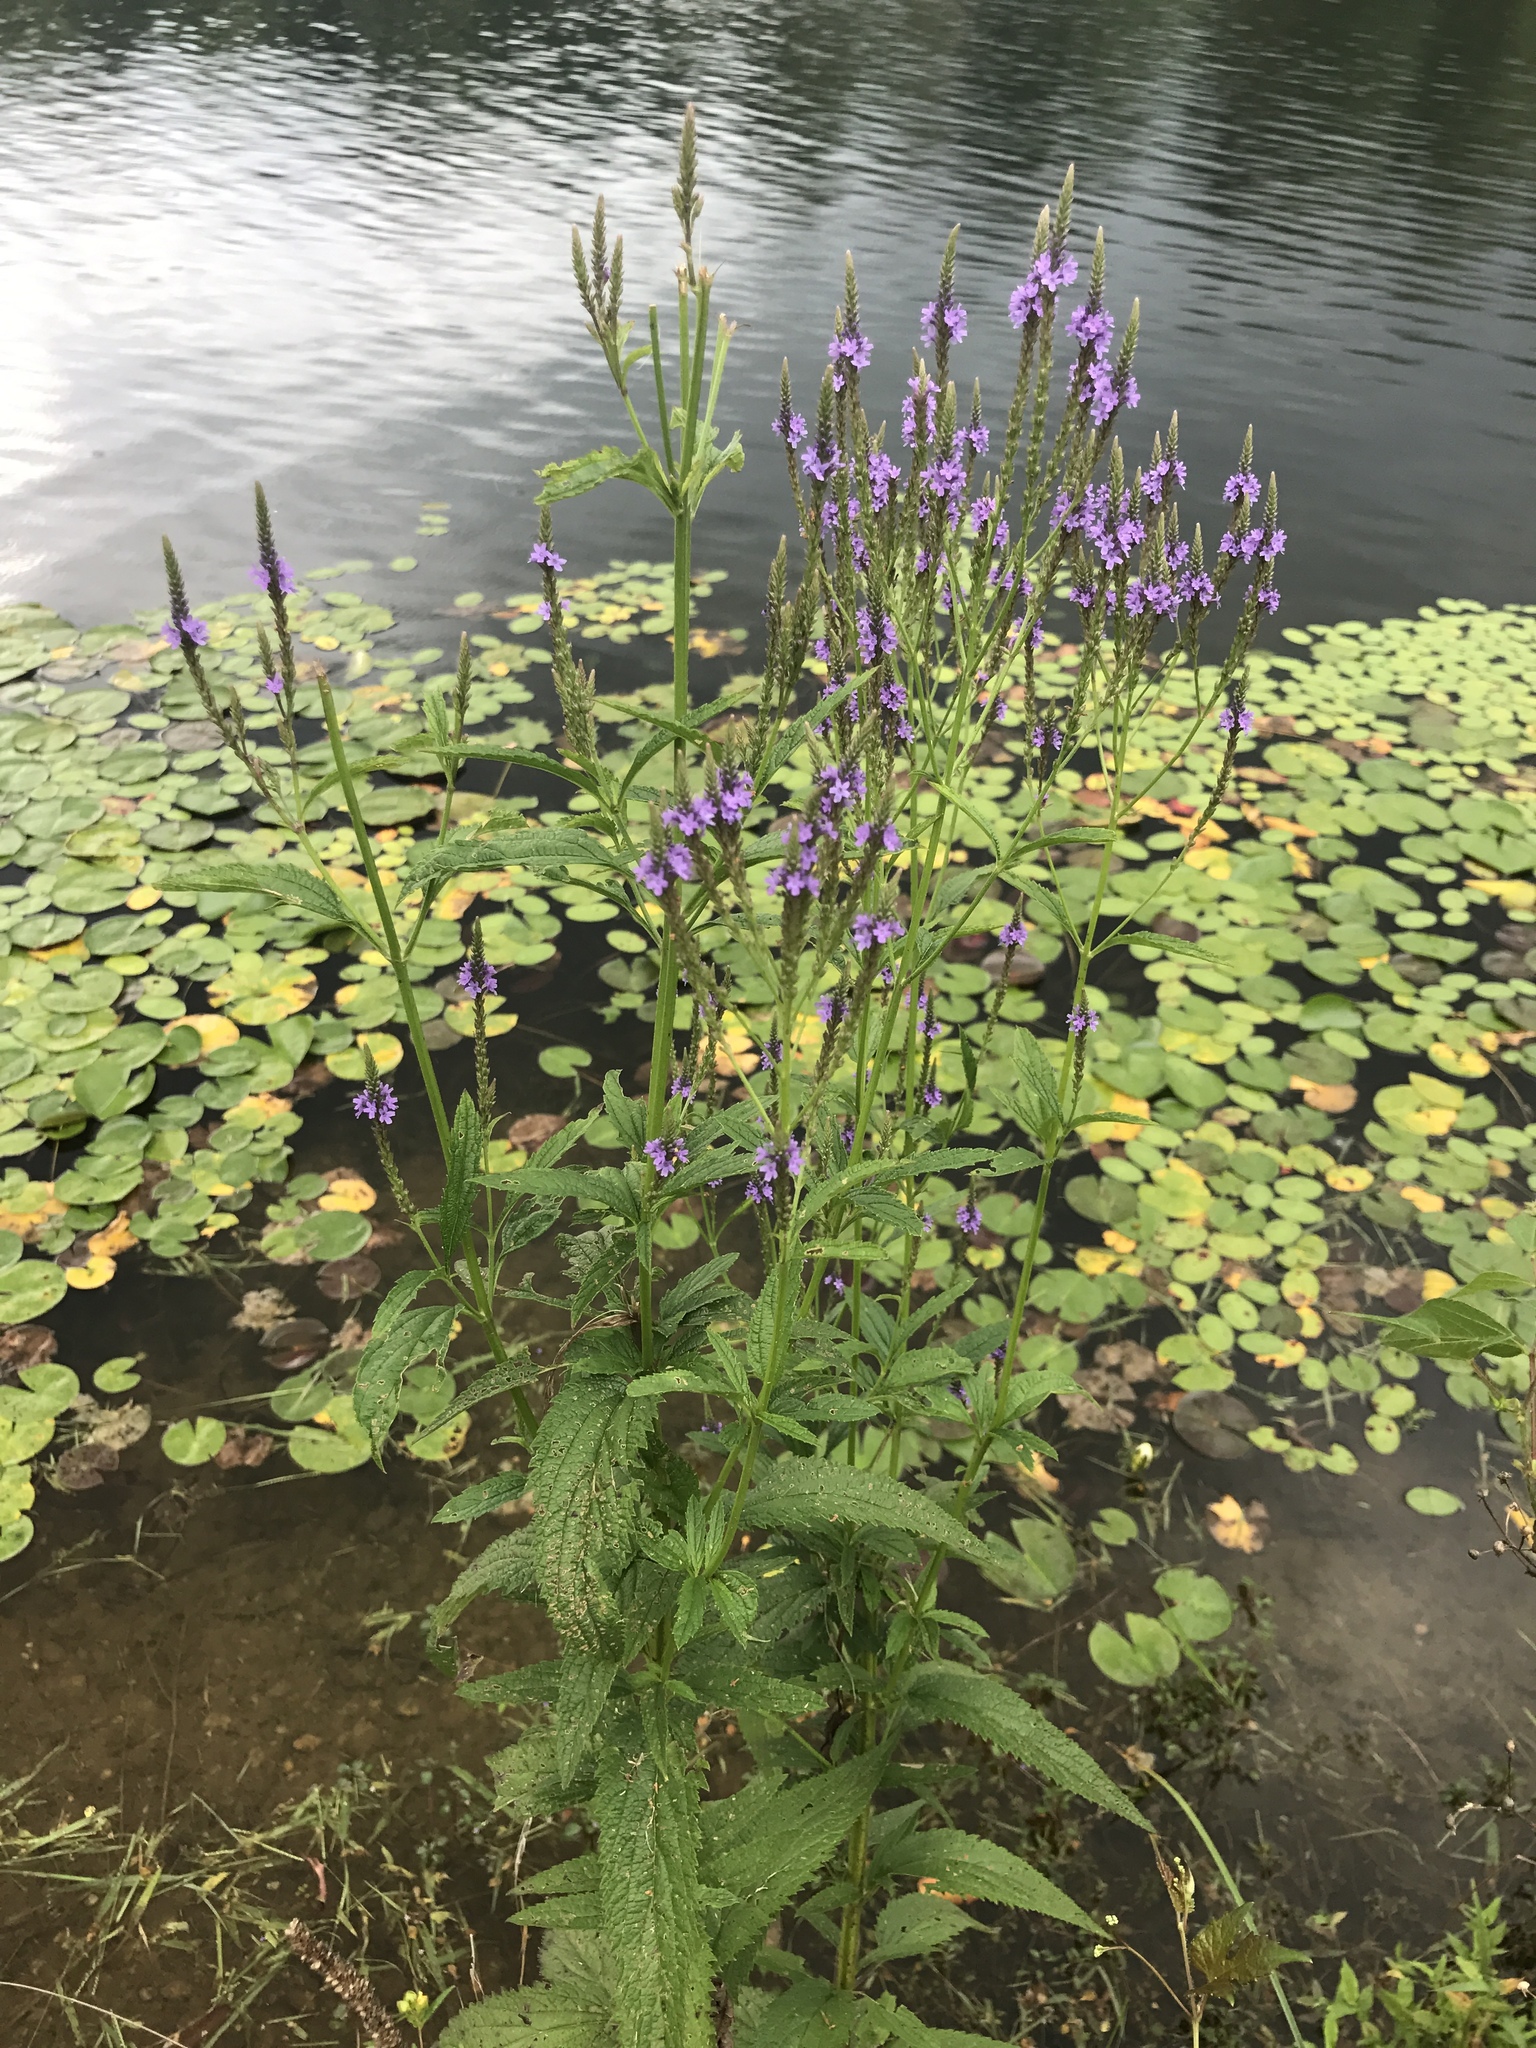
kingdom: Plantae
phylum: Tracheophyta
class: Magnoliopsida
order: Lamiales
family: Verbenaceae
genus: Verbena
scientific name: Verbena hastata
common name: American blue vervain
